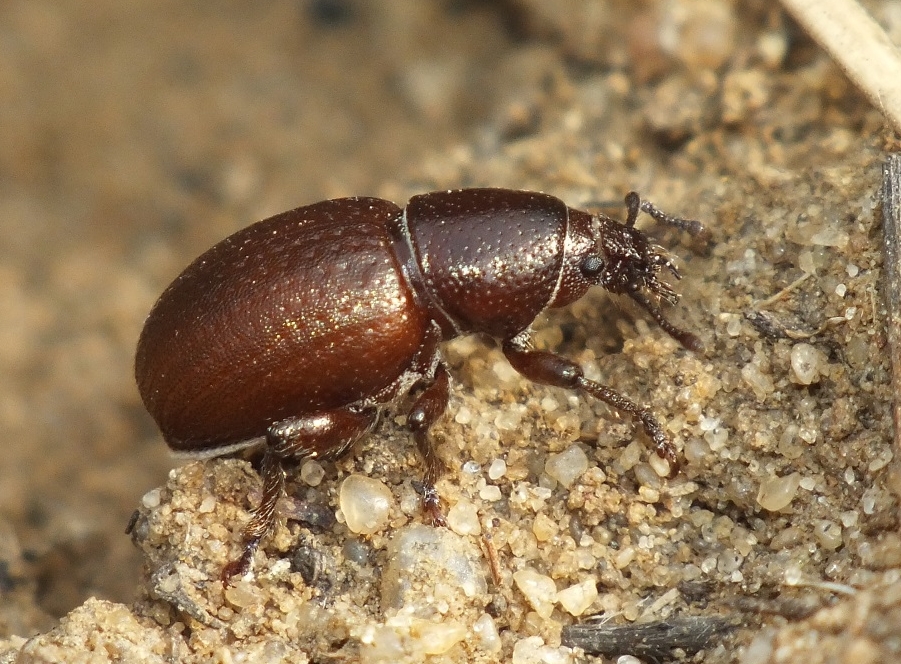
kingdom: Animalia
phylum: Arthropoda
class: Insecta
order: Coleoptera
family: Curculionidae
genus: Psallidium
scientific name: Psallidium maxillosum
